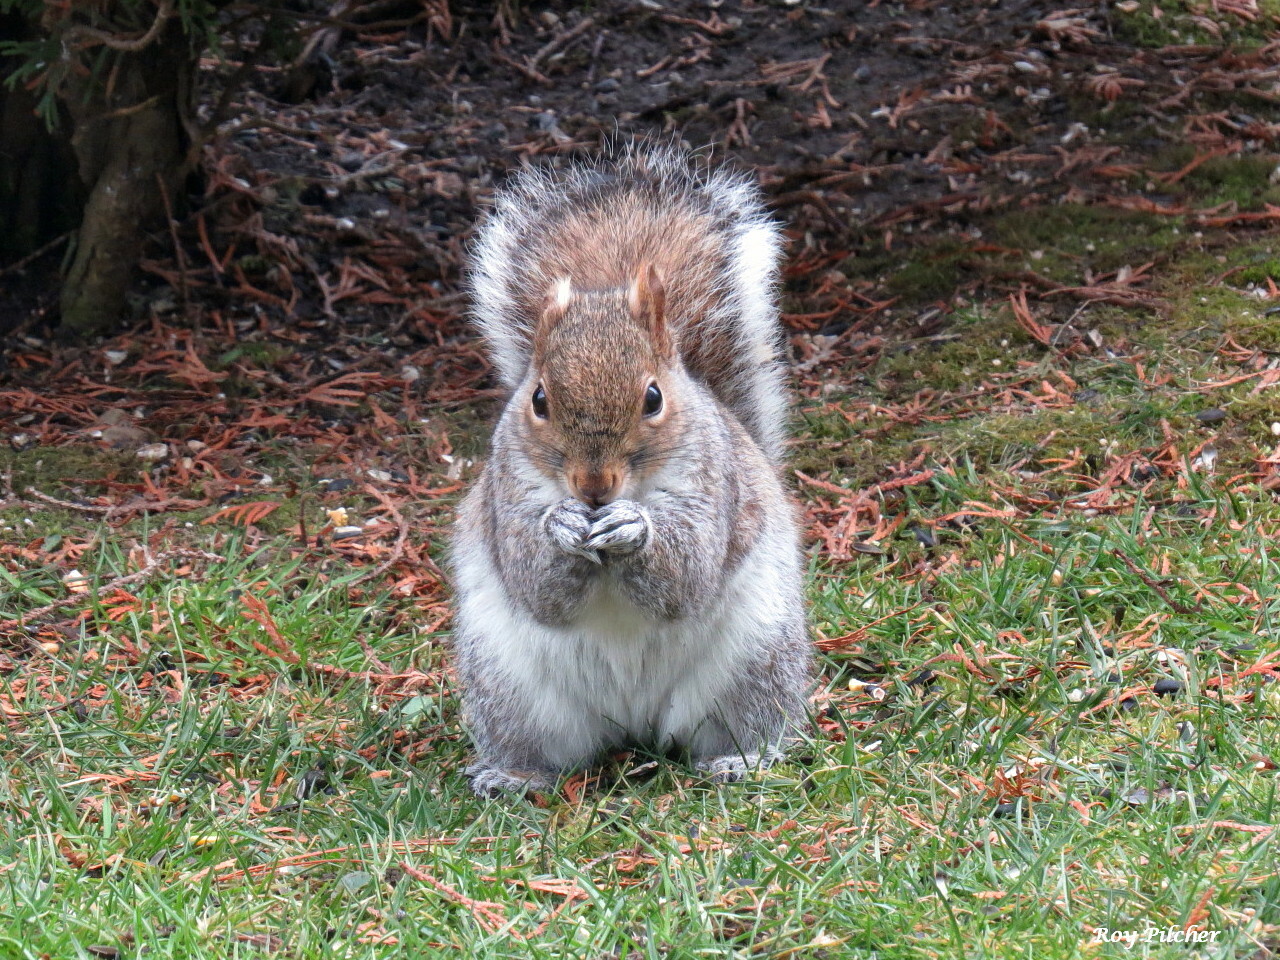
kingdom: Animalia
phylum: Chordata
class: Mammalia
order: Rodentia
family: Sciuridae
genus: Sciurus
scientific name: Sciurus carolinensis
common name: Eastern gray squirrel
